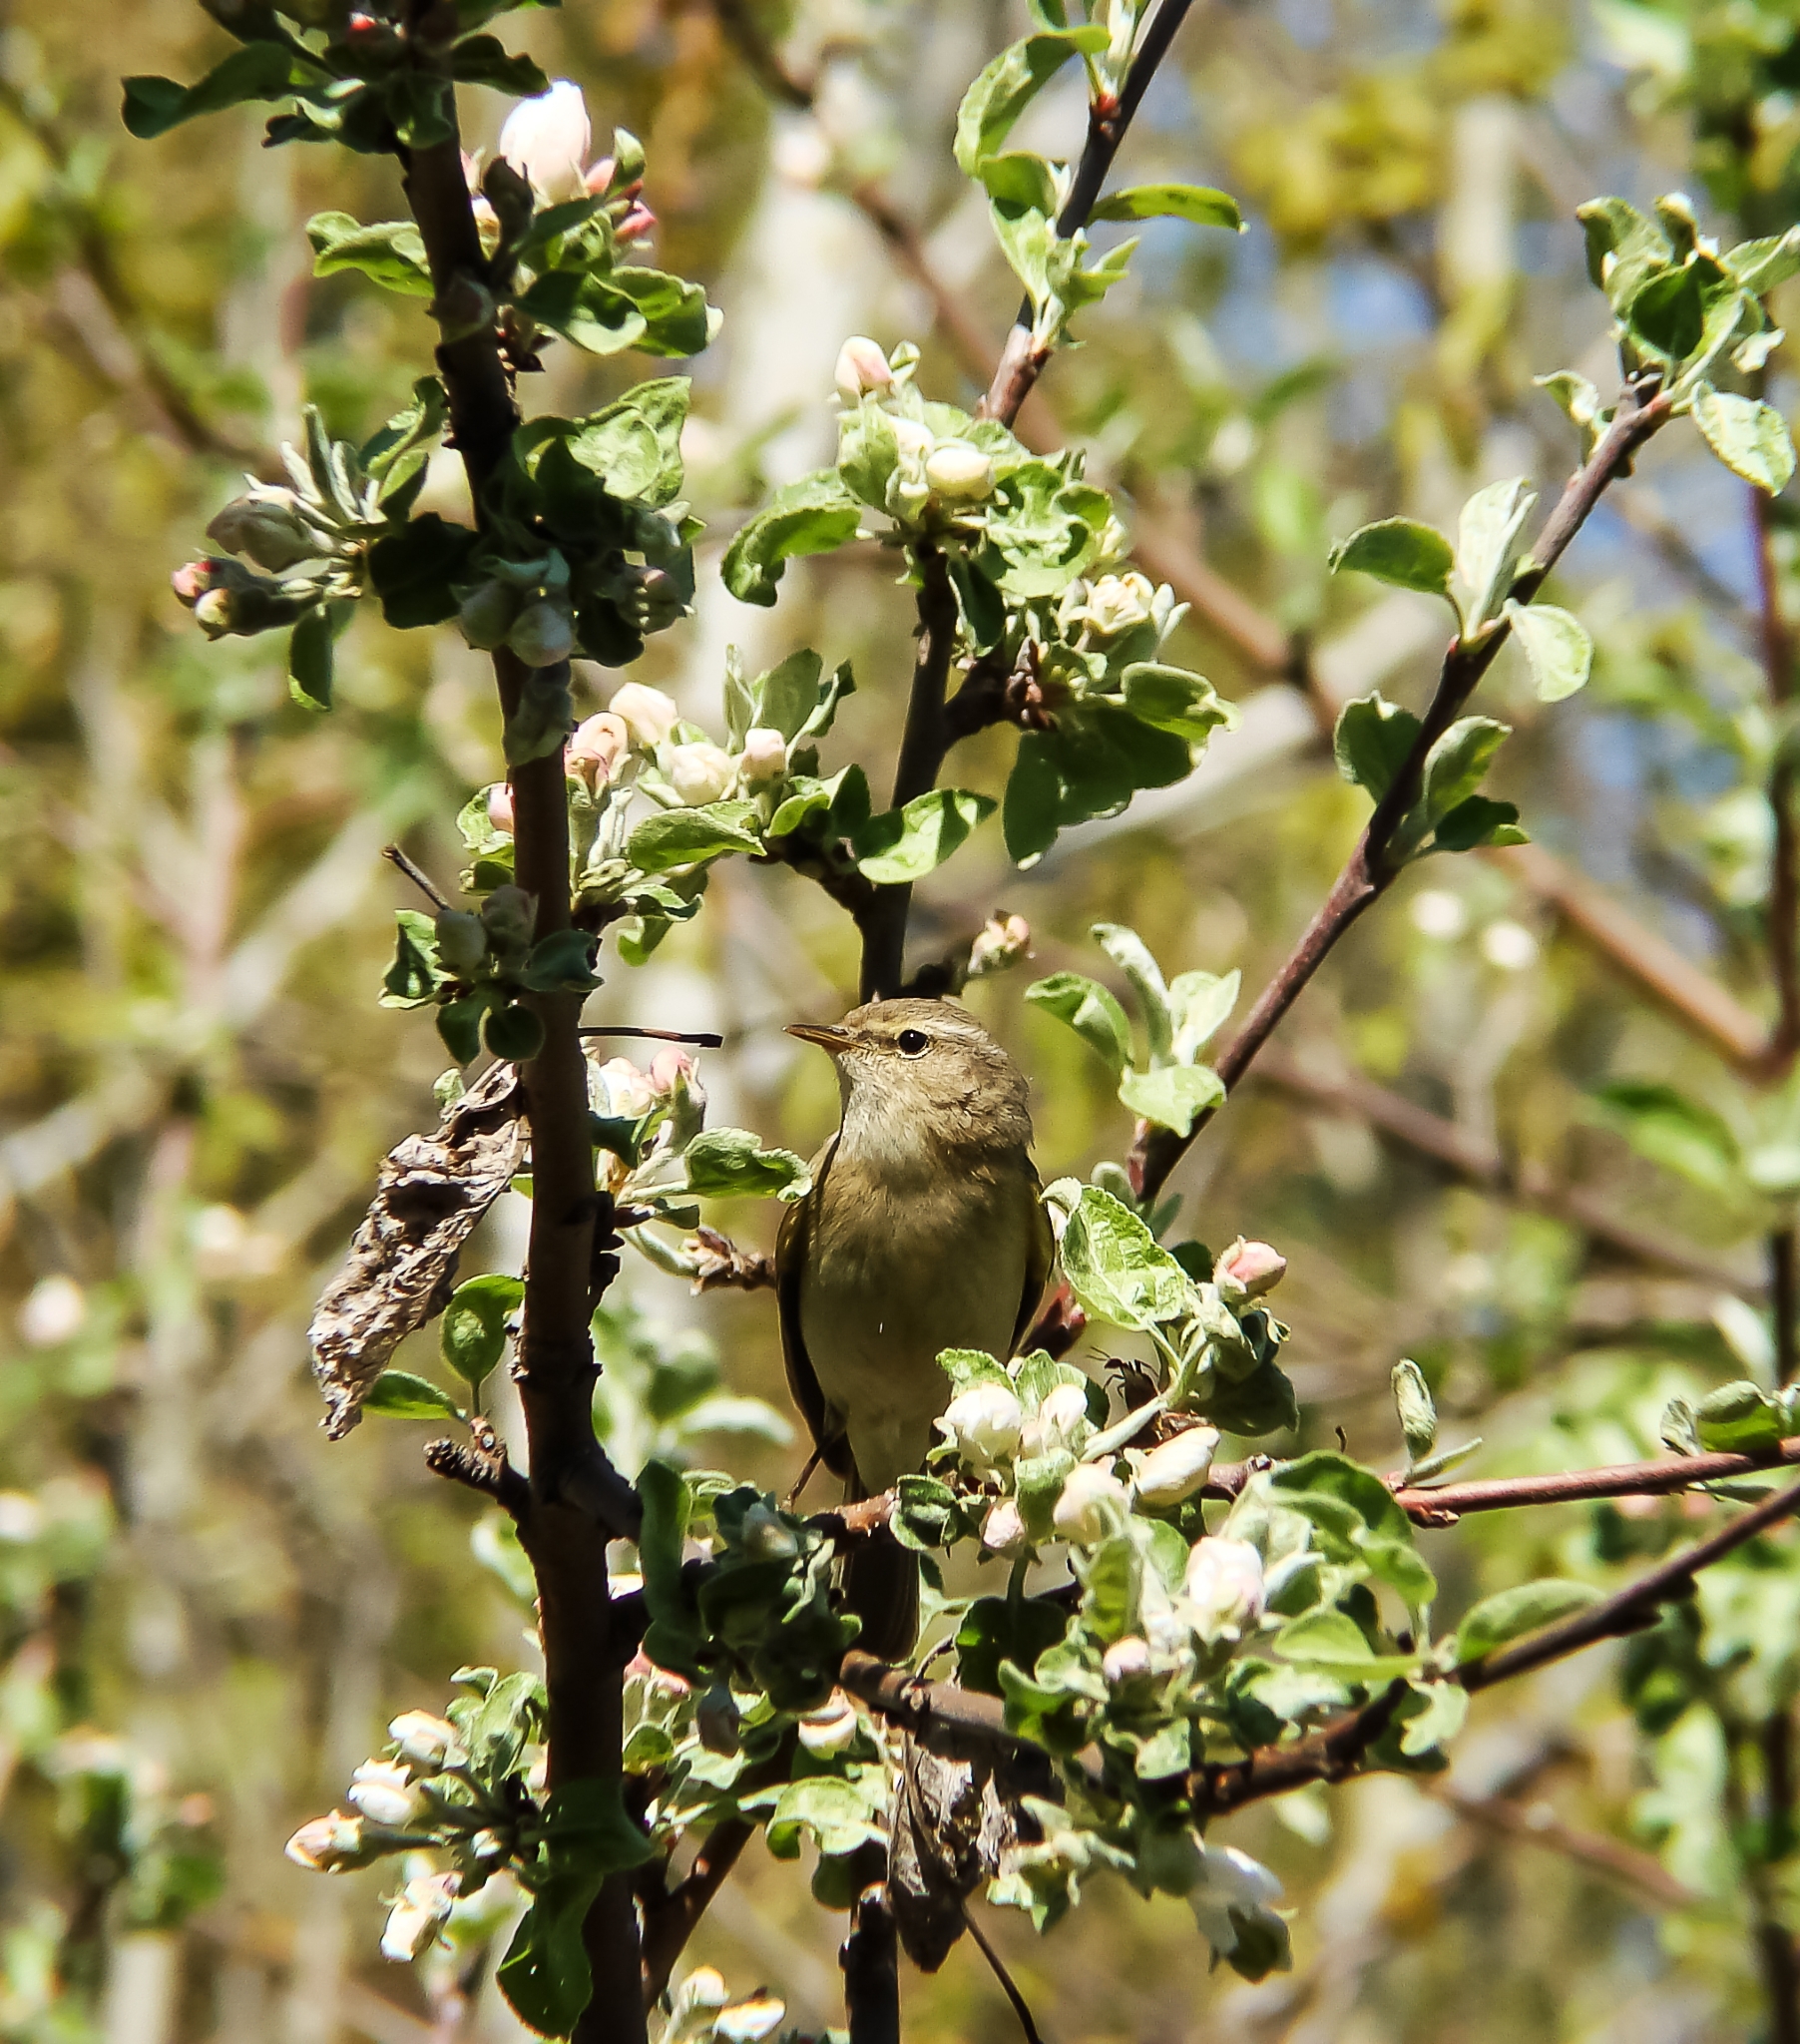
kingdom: Animalia
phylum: Chordata
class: Aves
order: Passeriformes
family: Phylloscopidae
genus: Phylloscopus
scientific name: Phylloscopus collybita
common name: Common chiffchaff
